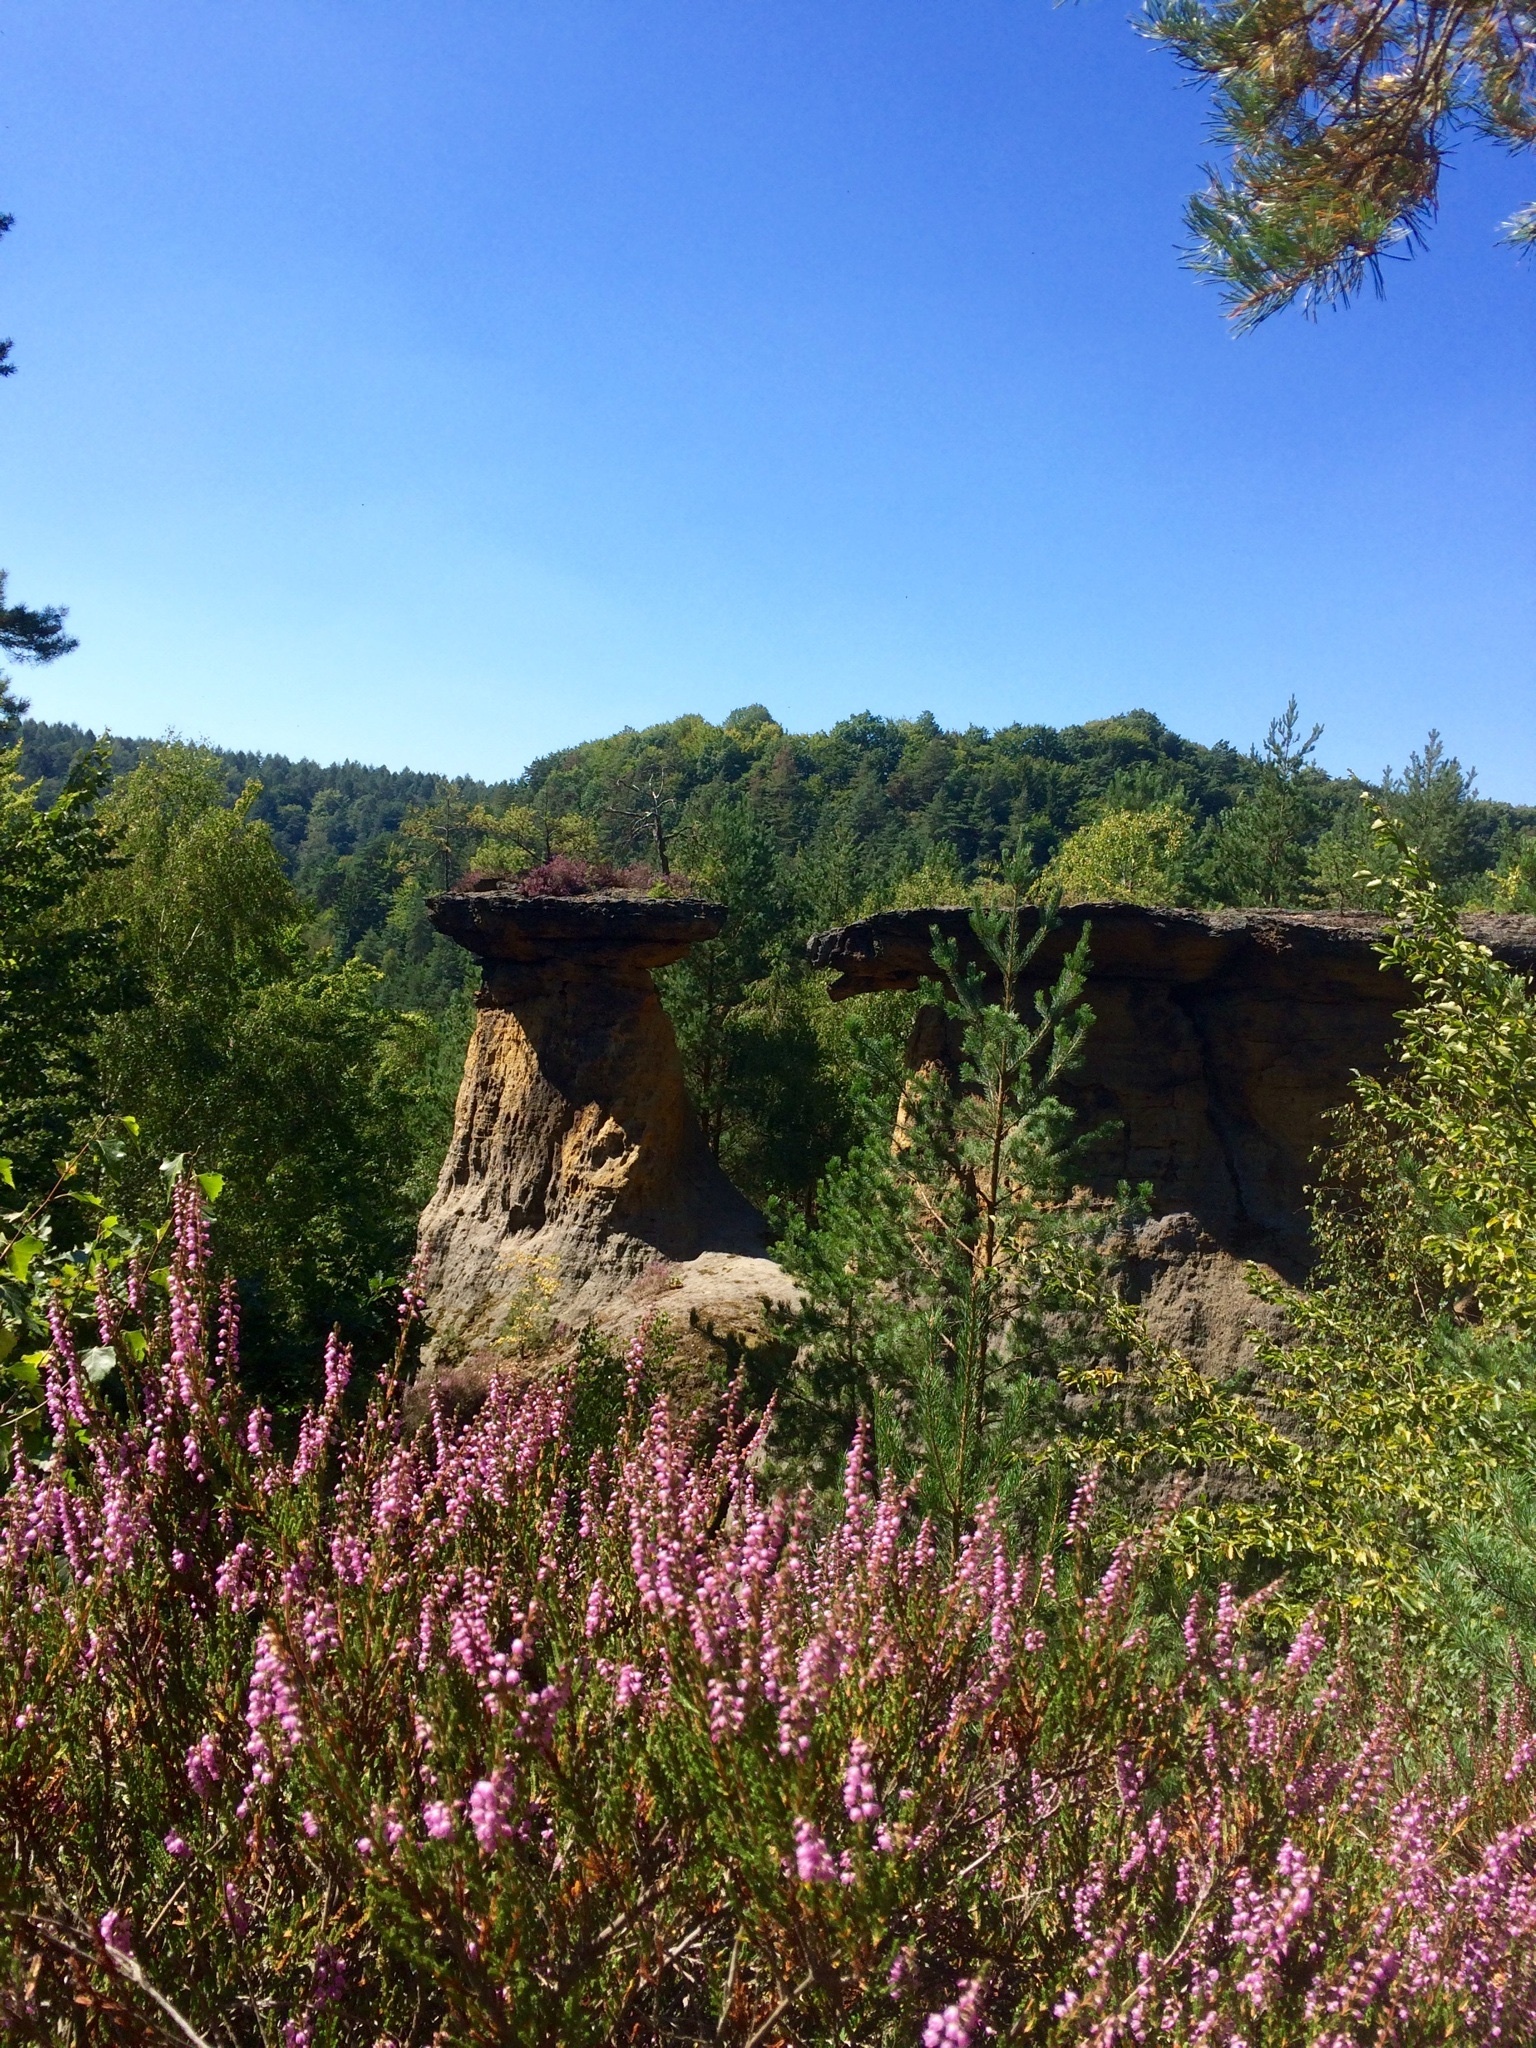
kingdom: Plantae
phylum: Tracheophyta
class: Magnoliopsida
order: Ericales
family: Ericaceae
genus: Calluna
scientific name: Calluna vulgaris
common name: Heather
